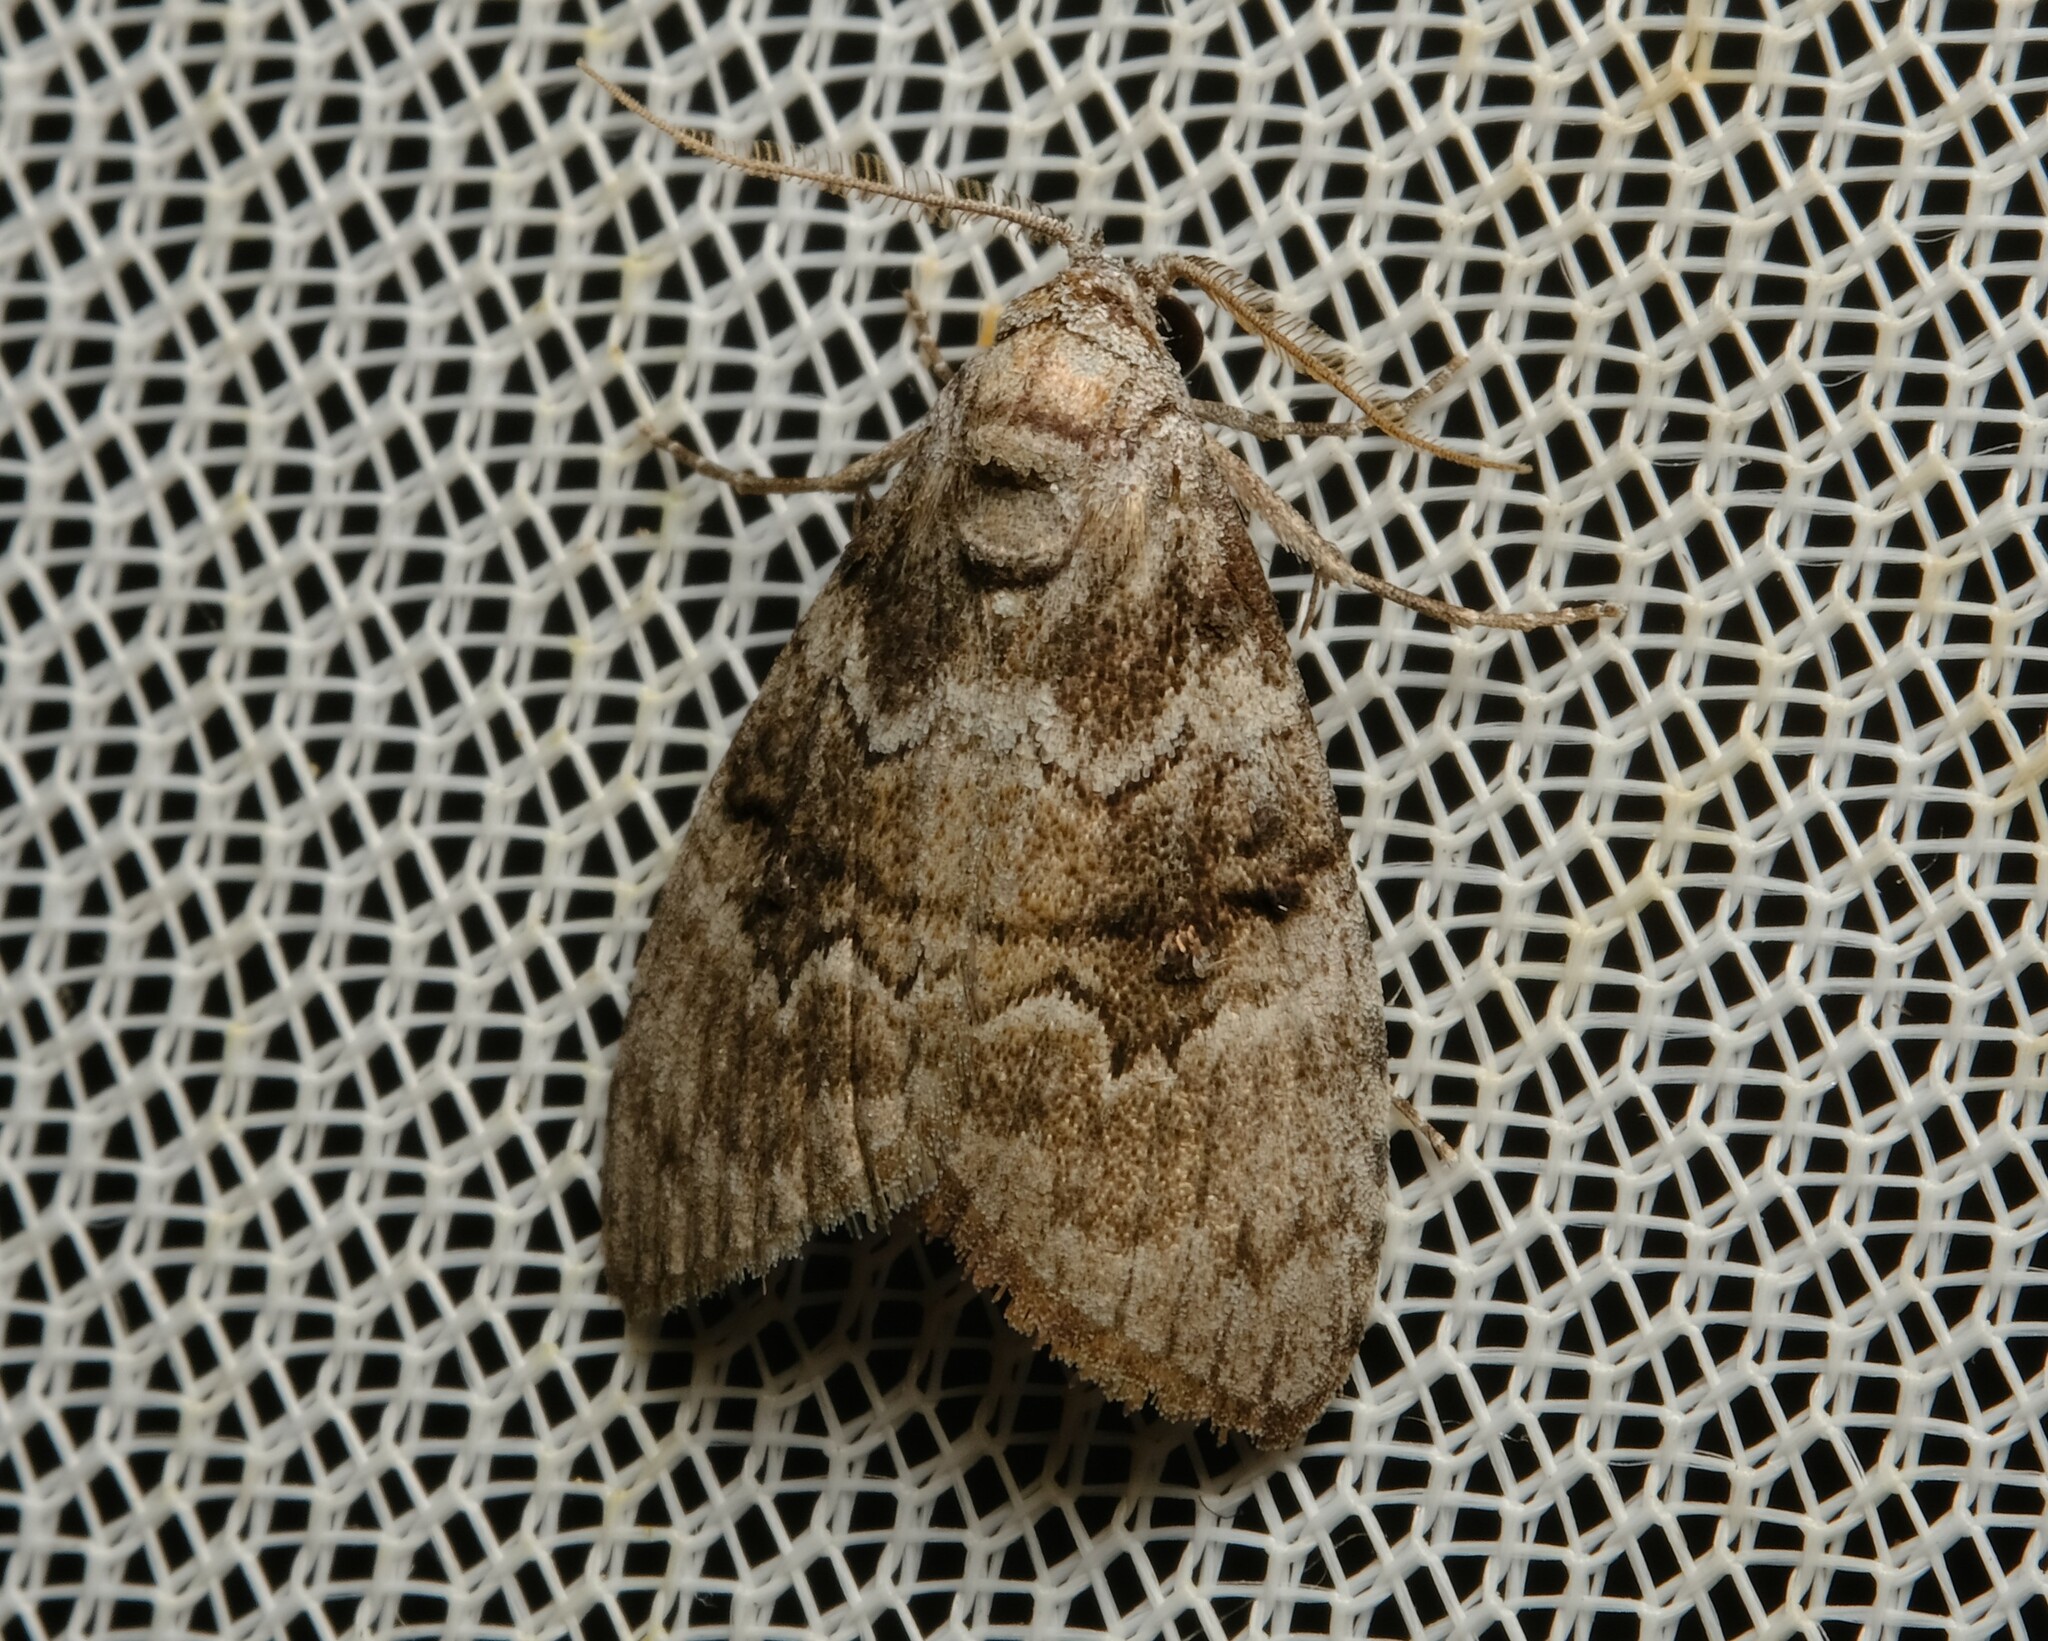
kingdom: Animalia
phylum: Arthropoda
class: Insecta
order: Lepidoptera
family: Nolidae
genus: Uraba
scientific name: Uraba lugens
